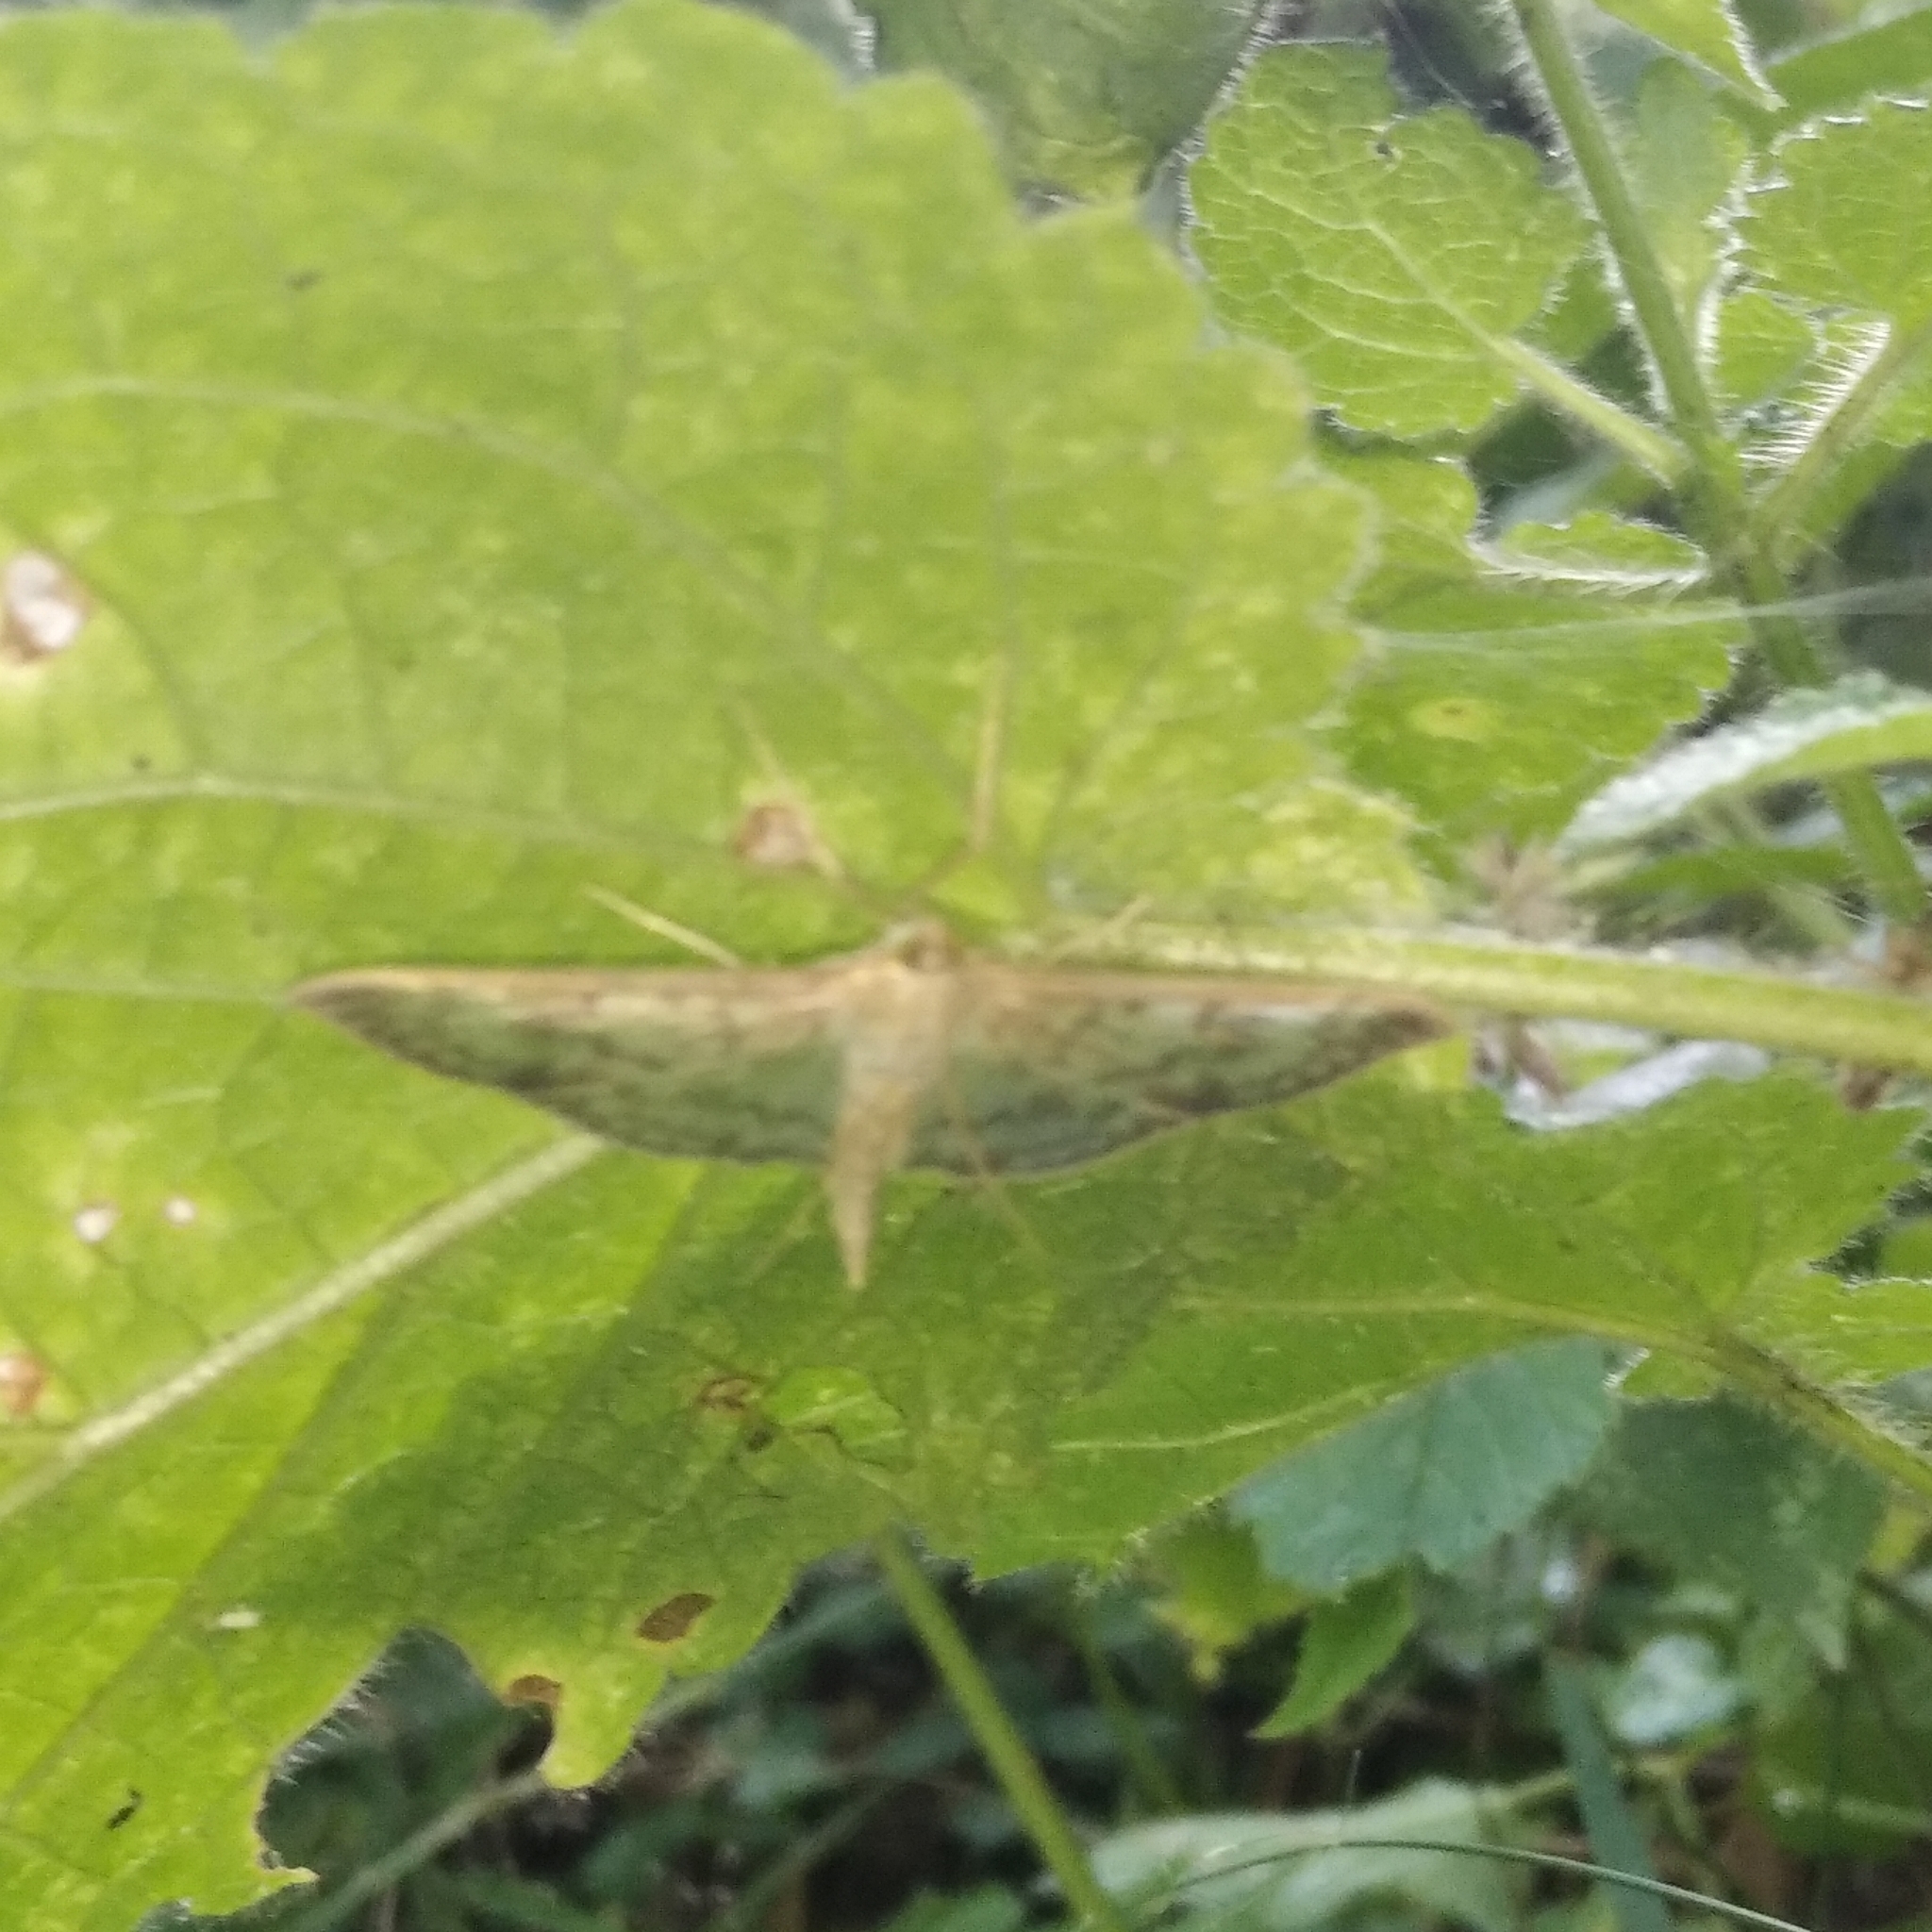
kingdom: Animalia
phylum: Arthropoda
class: Insecta
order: Lepidoptera
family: Crambidae
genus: Patania
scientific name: Patania ruralis
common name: Mother of pearl
